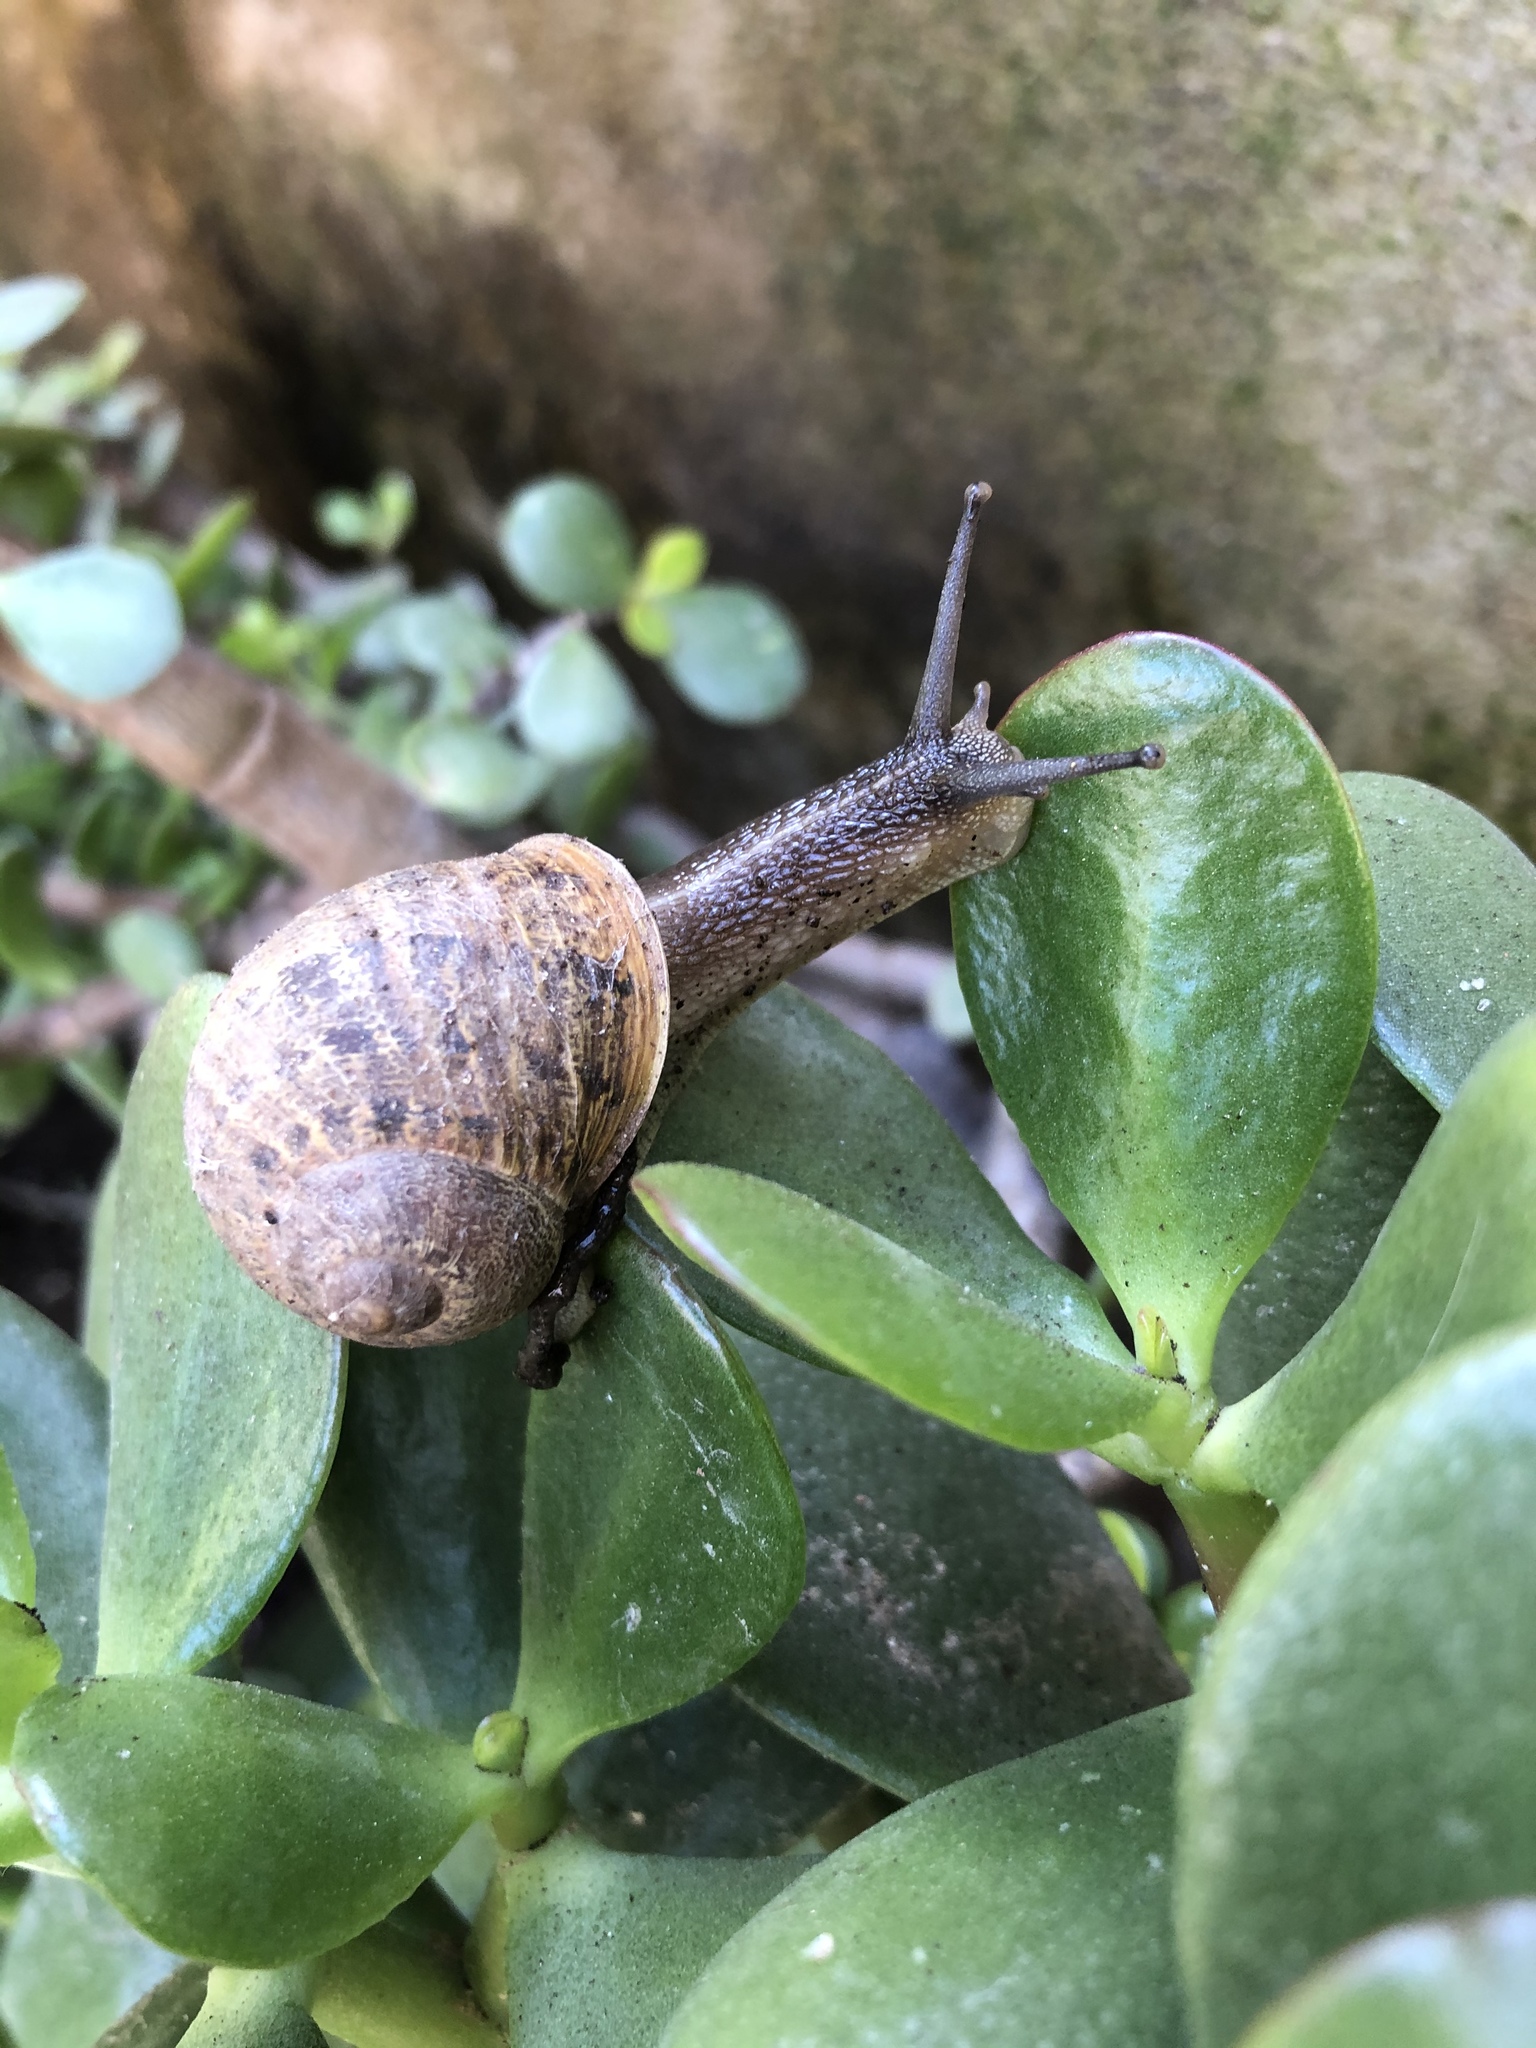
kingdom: Animalia
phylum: Mollusca
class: Gastropoda
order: Stylommatophora
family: Helicidae
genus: Cornu
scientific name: Cornu aspersum
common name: Brown garden snail
